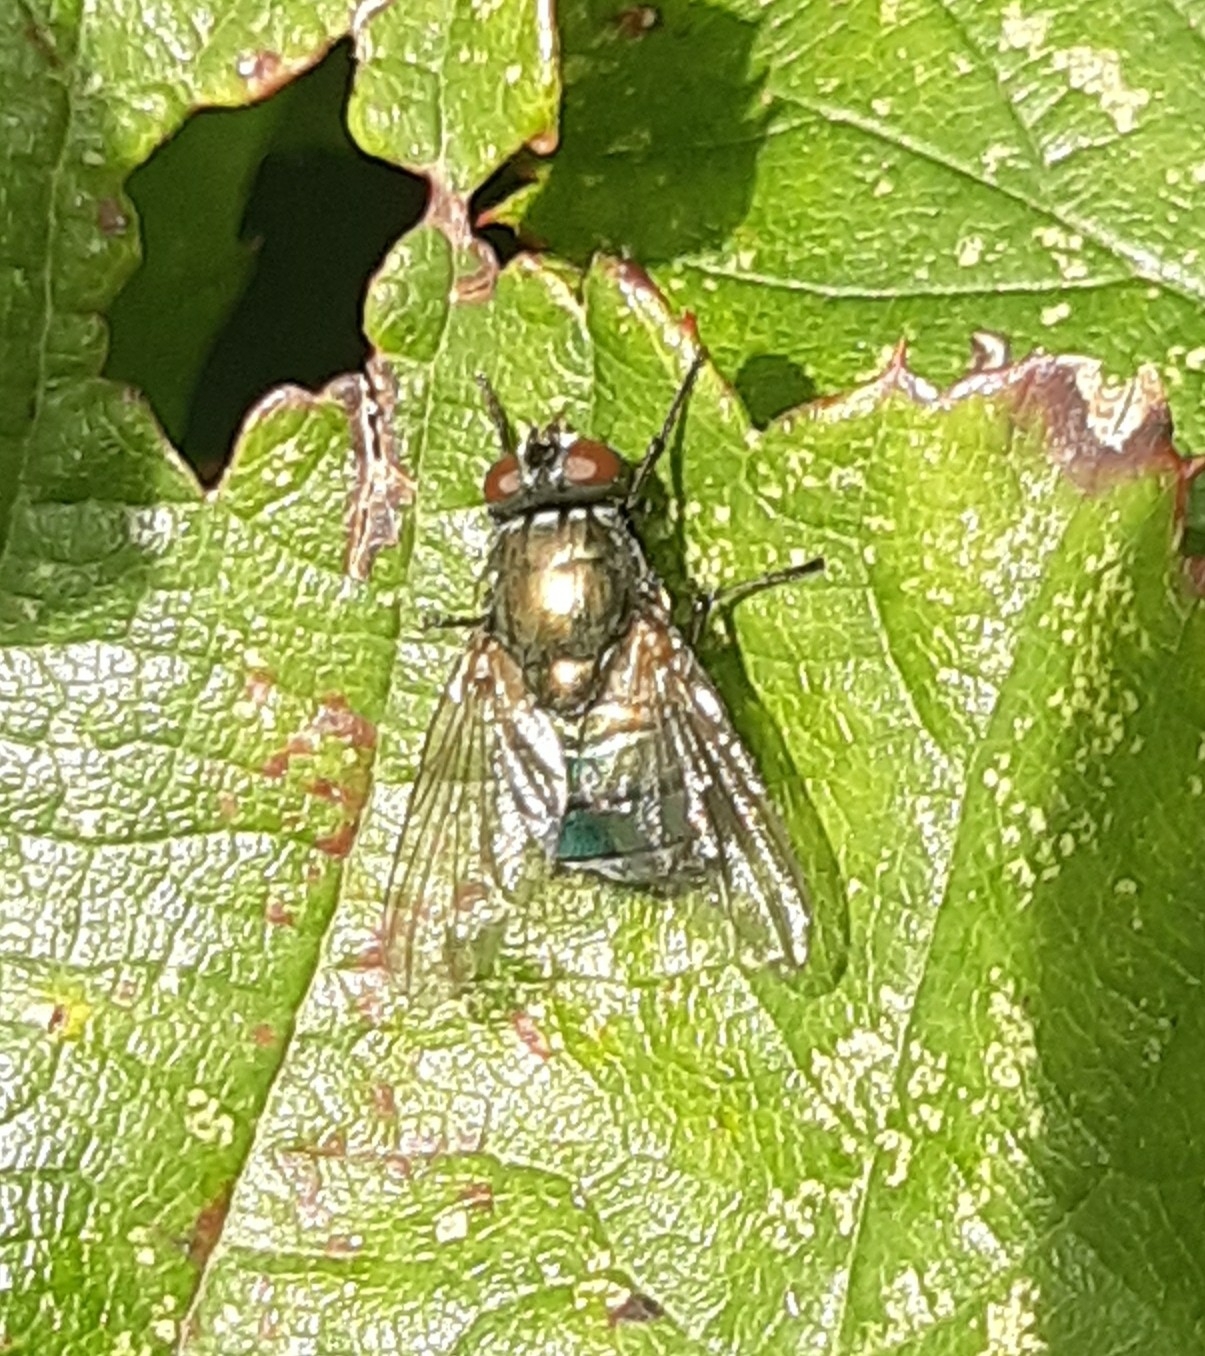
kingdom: Animalia
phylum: Arthropoda
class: Insecta
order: Diptera
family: Muscidae
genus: Dasyphora
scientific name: Dasyphora cyanella
